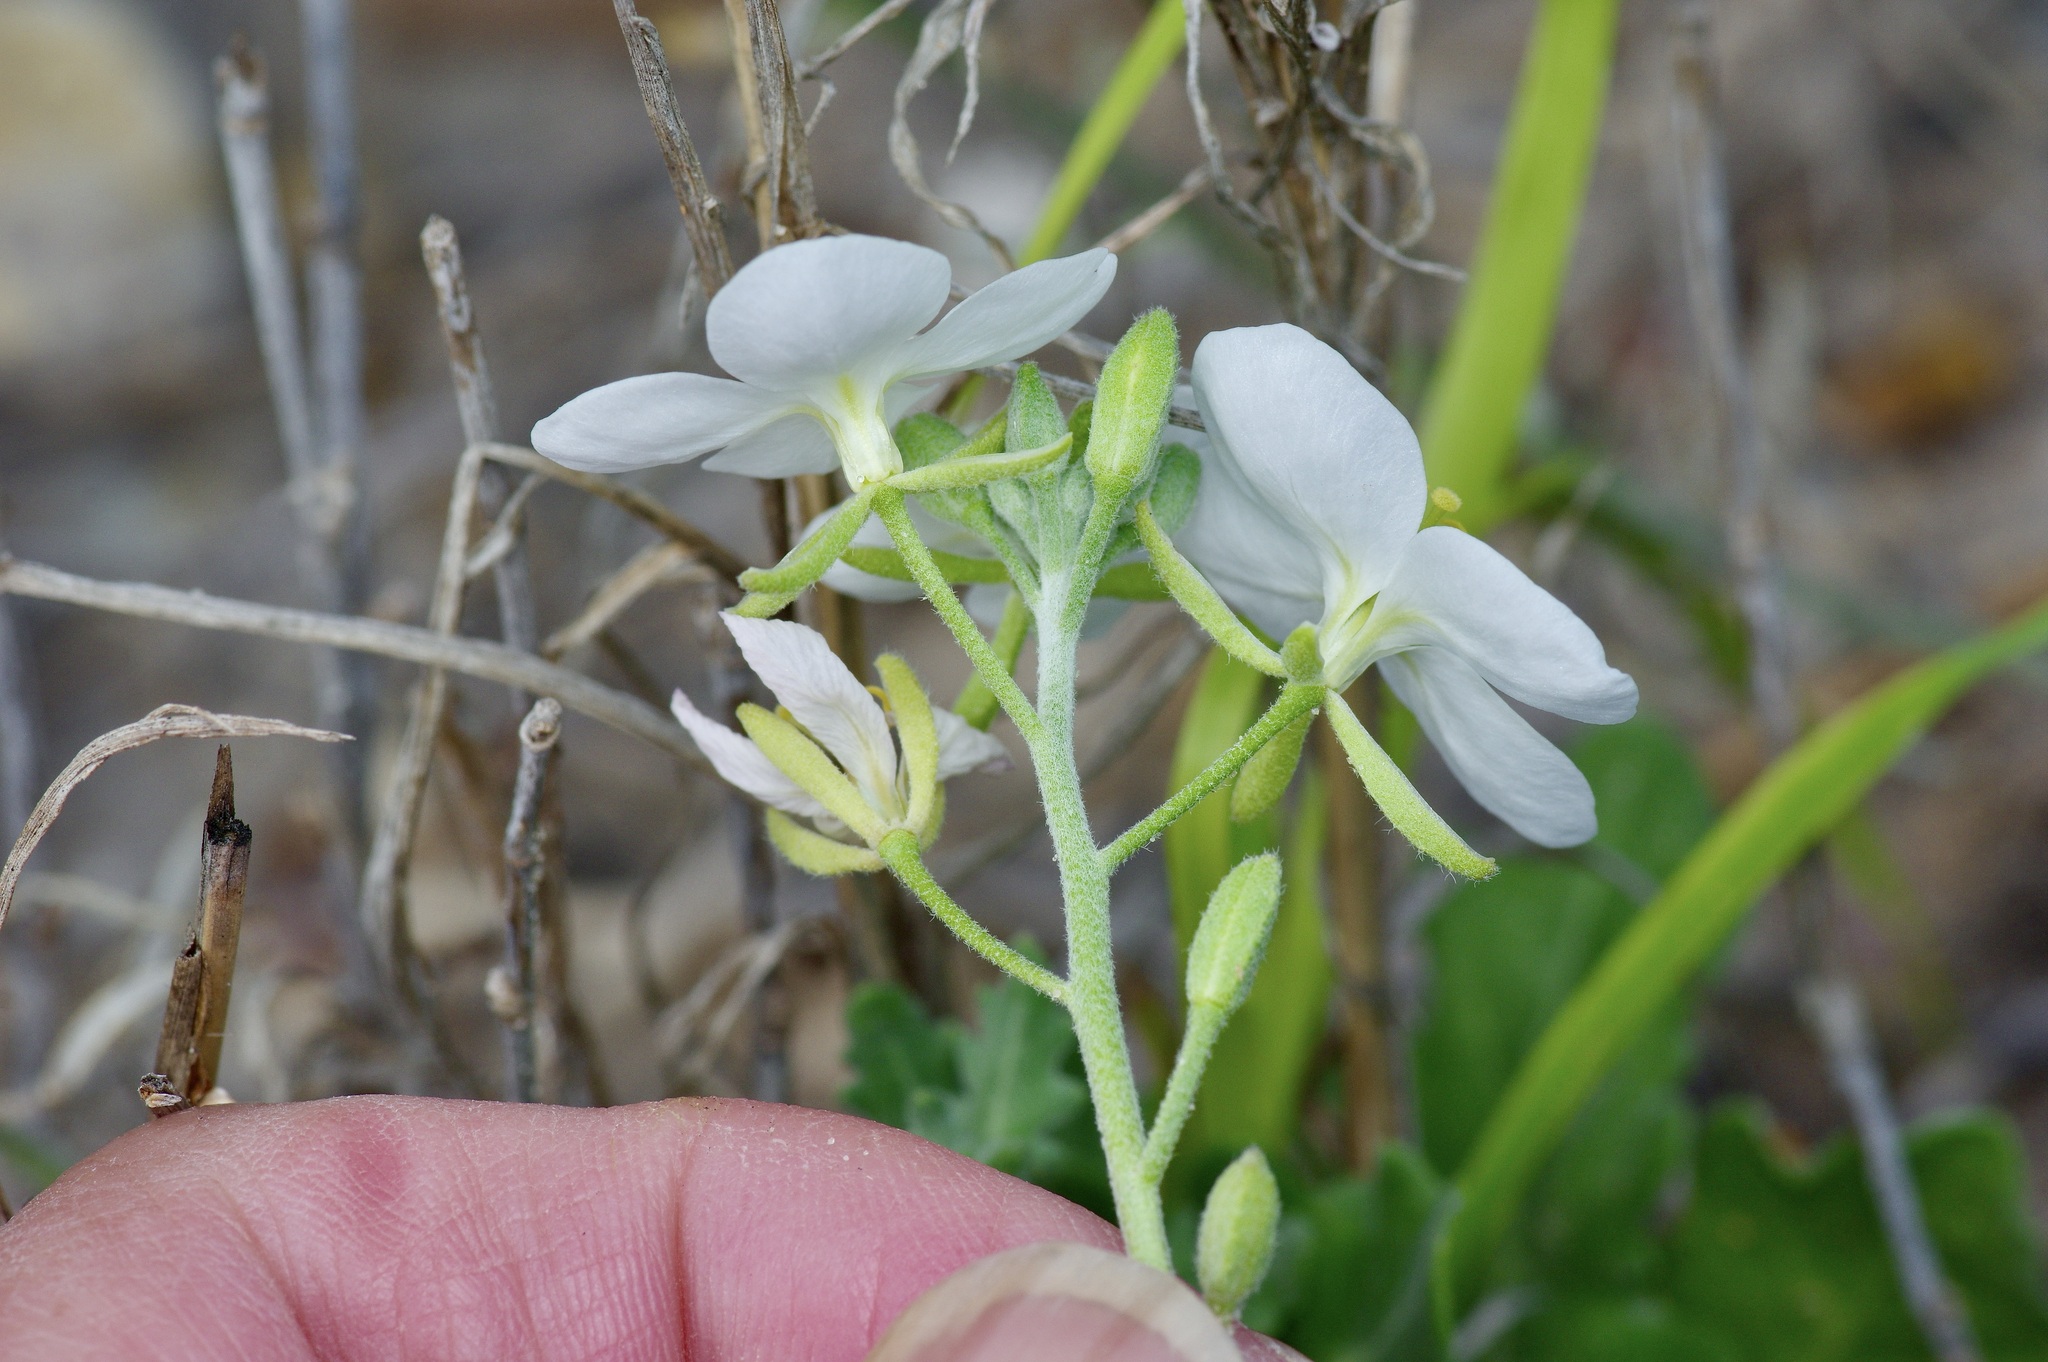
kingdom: Plantae
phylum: Tracheophyta
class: Magnoliopsida
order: Brassicales
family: Brassicaceae
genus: Synthlipsis
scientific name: Synthlipsis greggii
